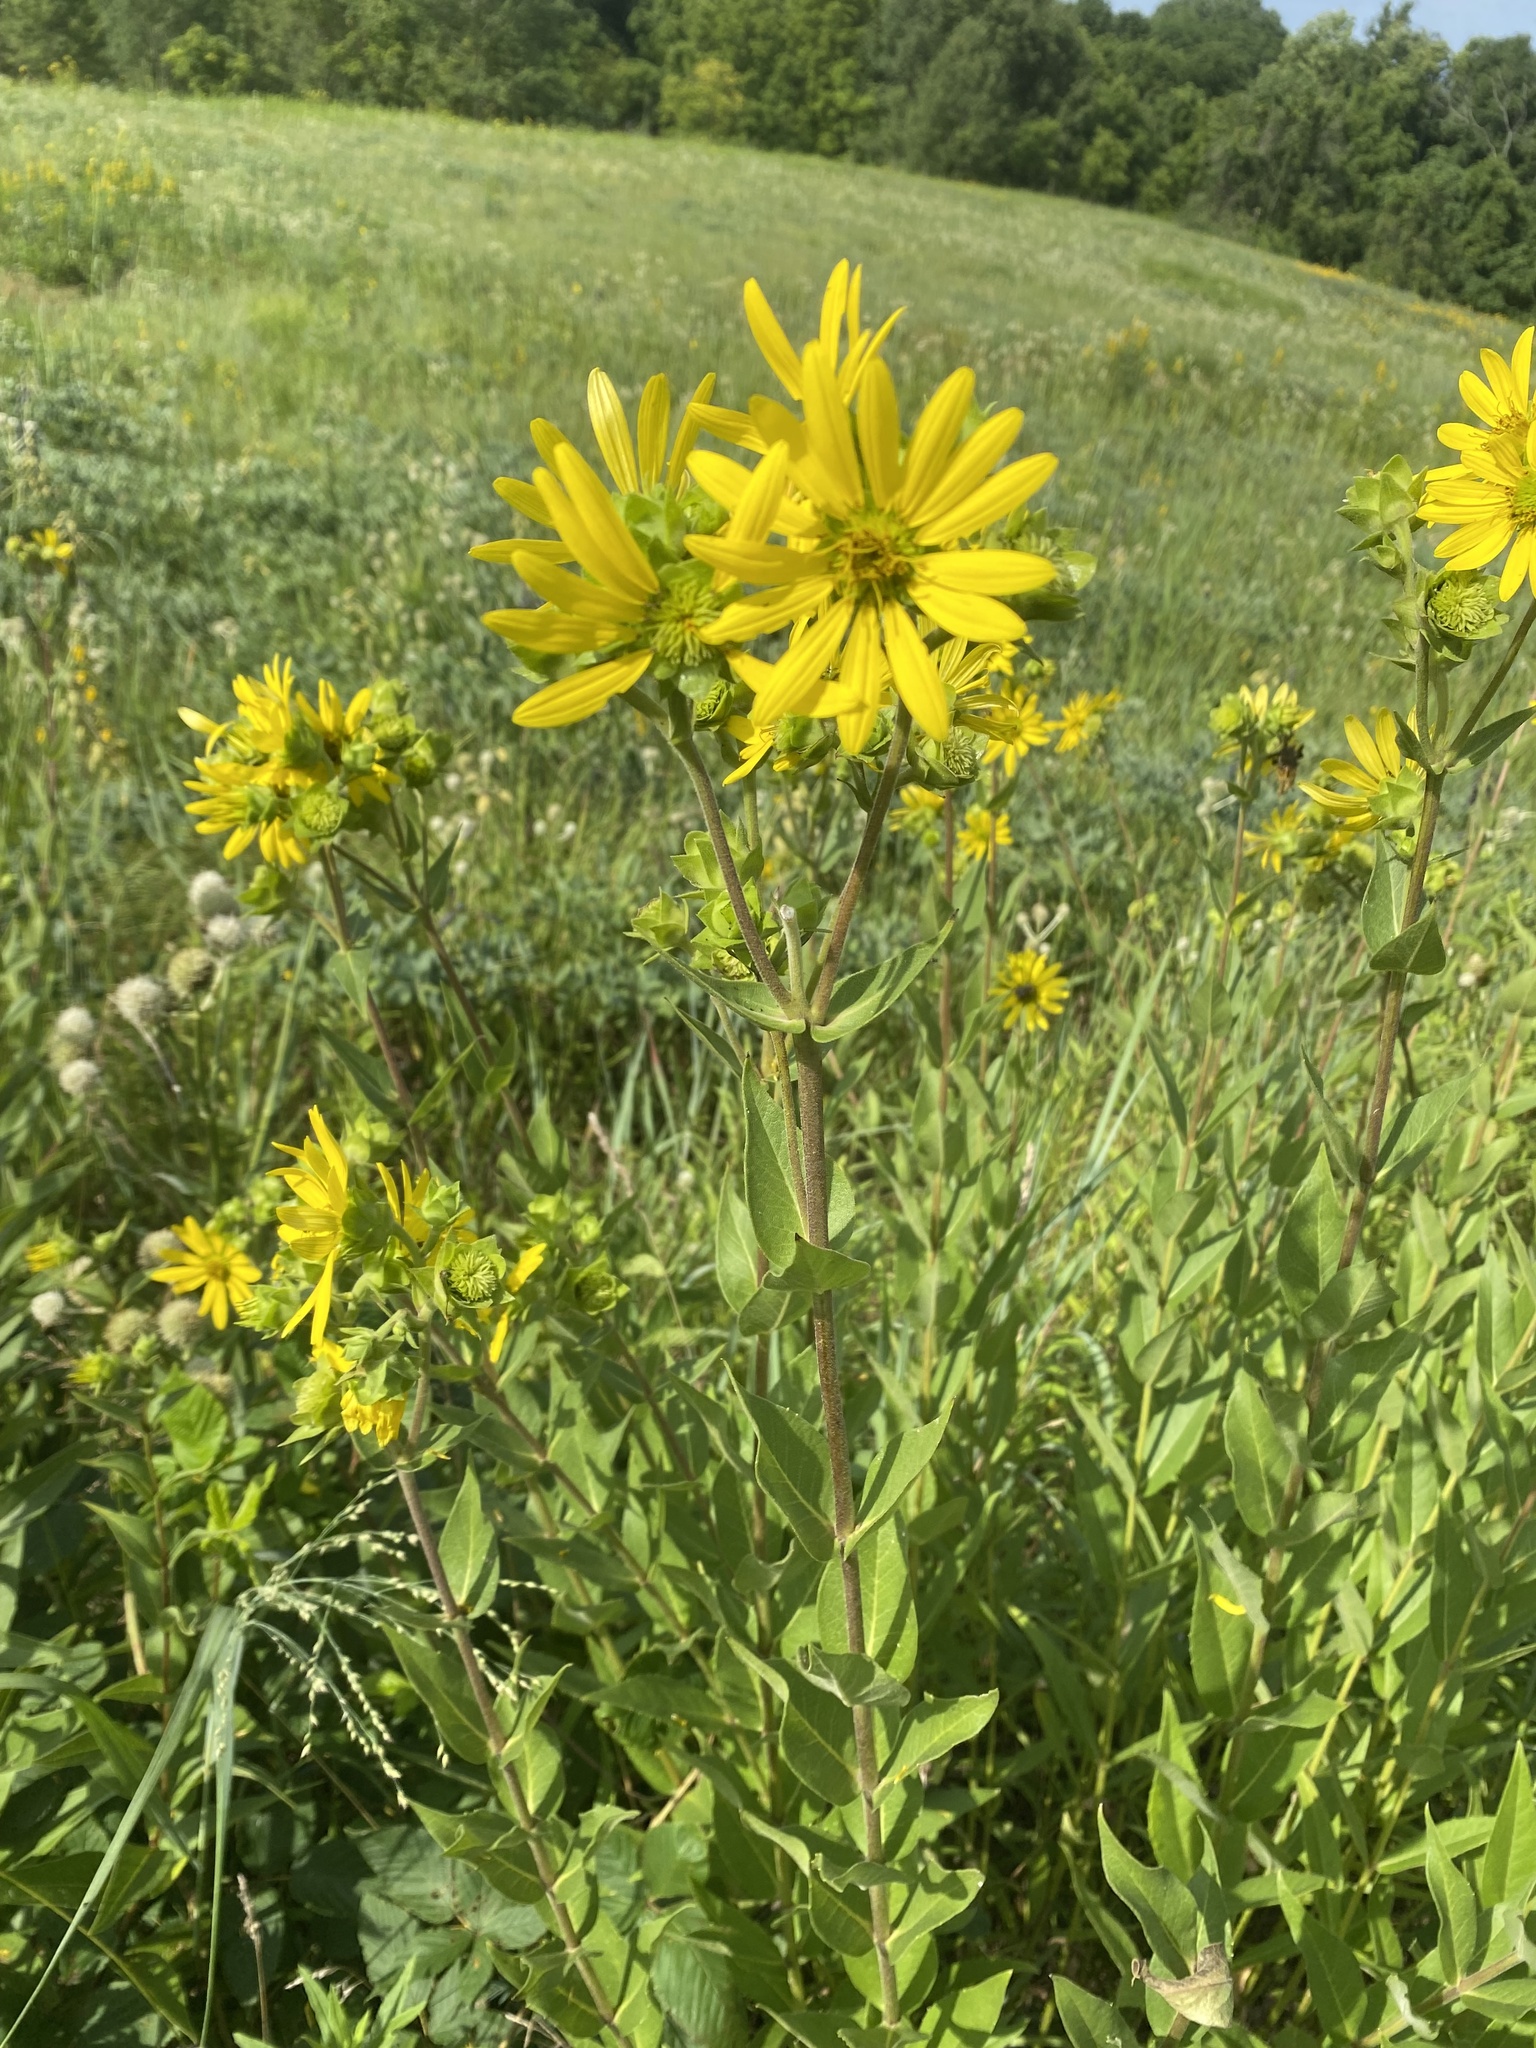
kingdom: Plantae
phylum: Tracheophyta
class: Magnoliopsida
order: Asterales
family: Asteraceae
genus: Silphium
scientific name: Silphium integrifolium
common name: Whole-leaf rosinweed
